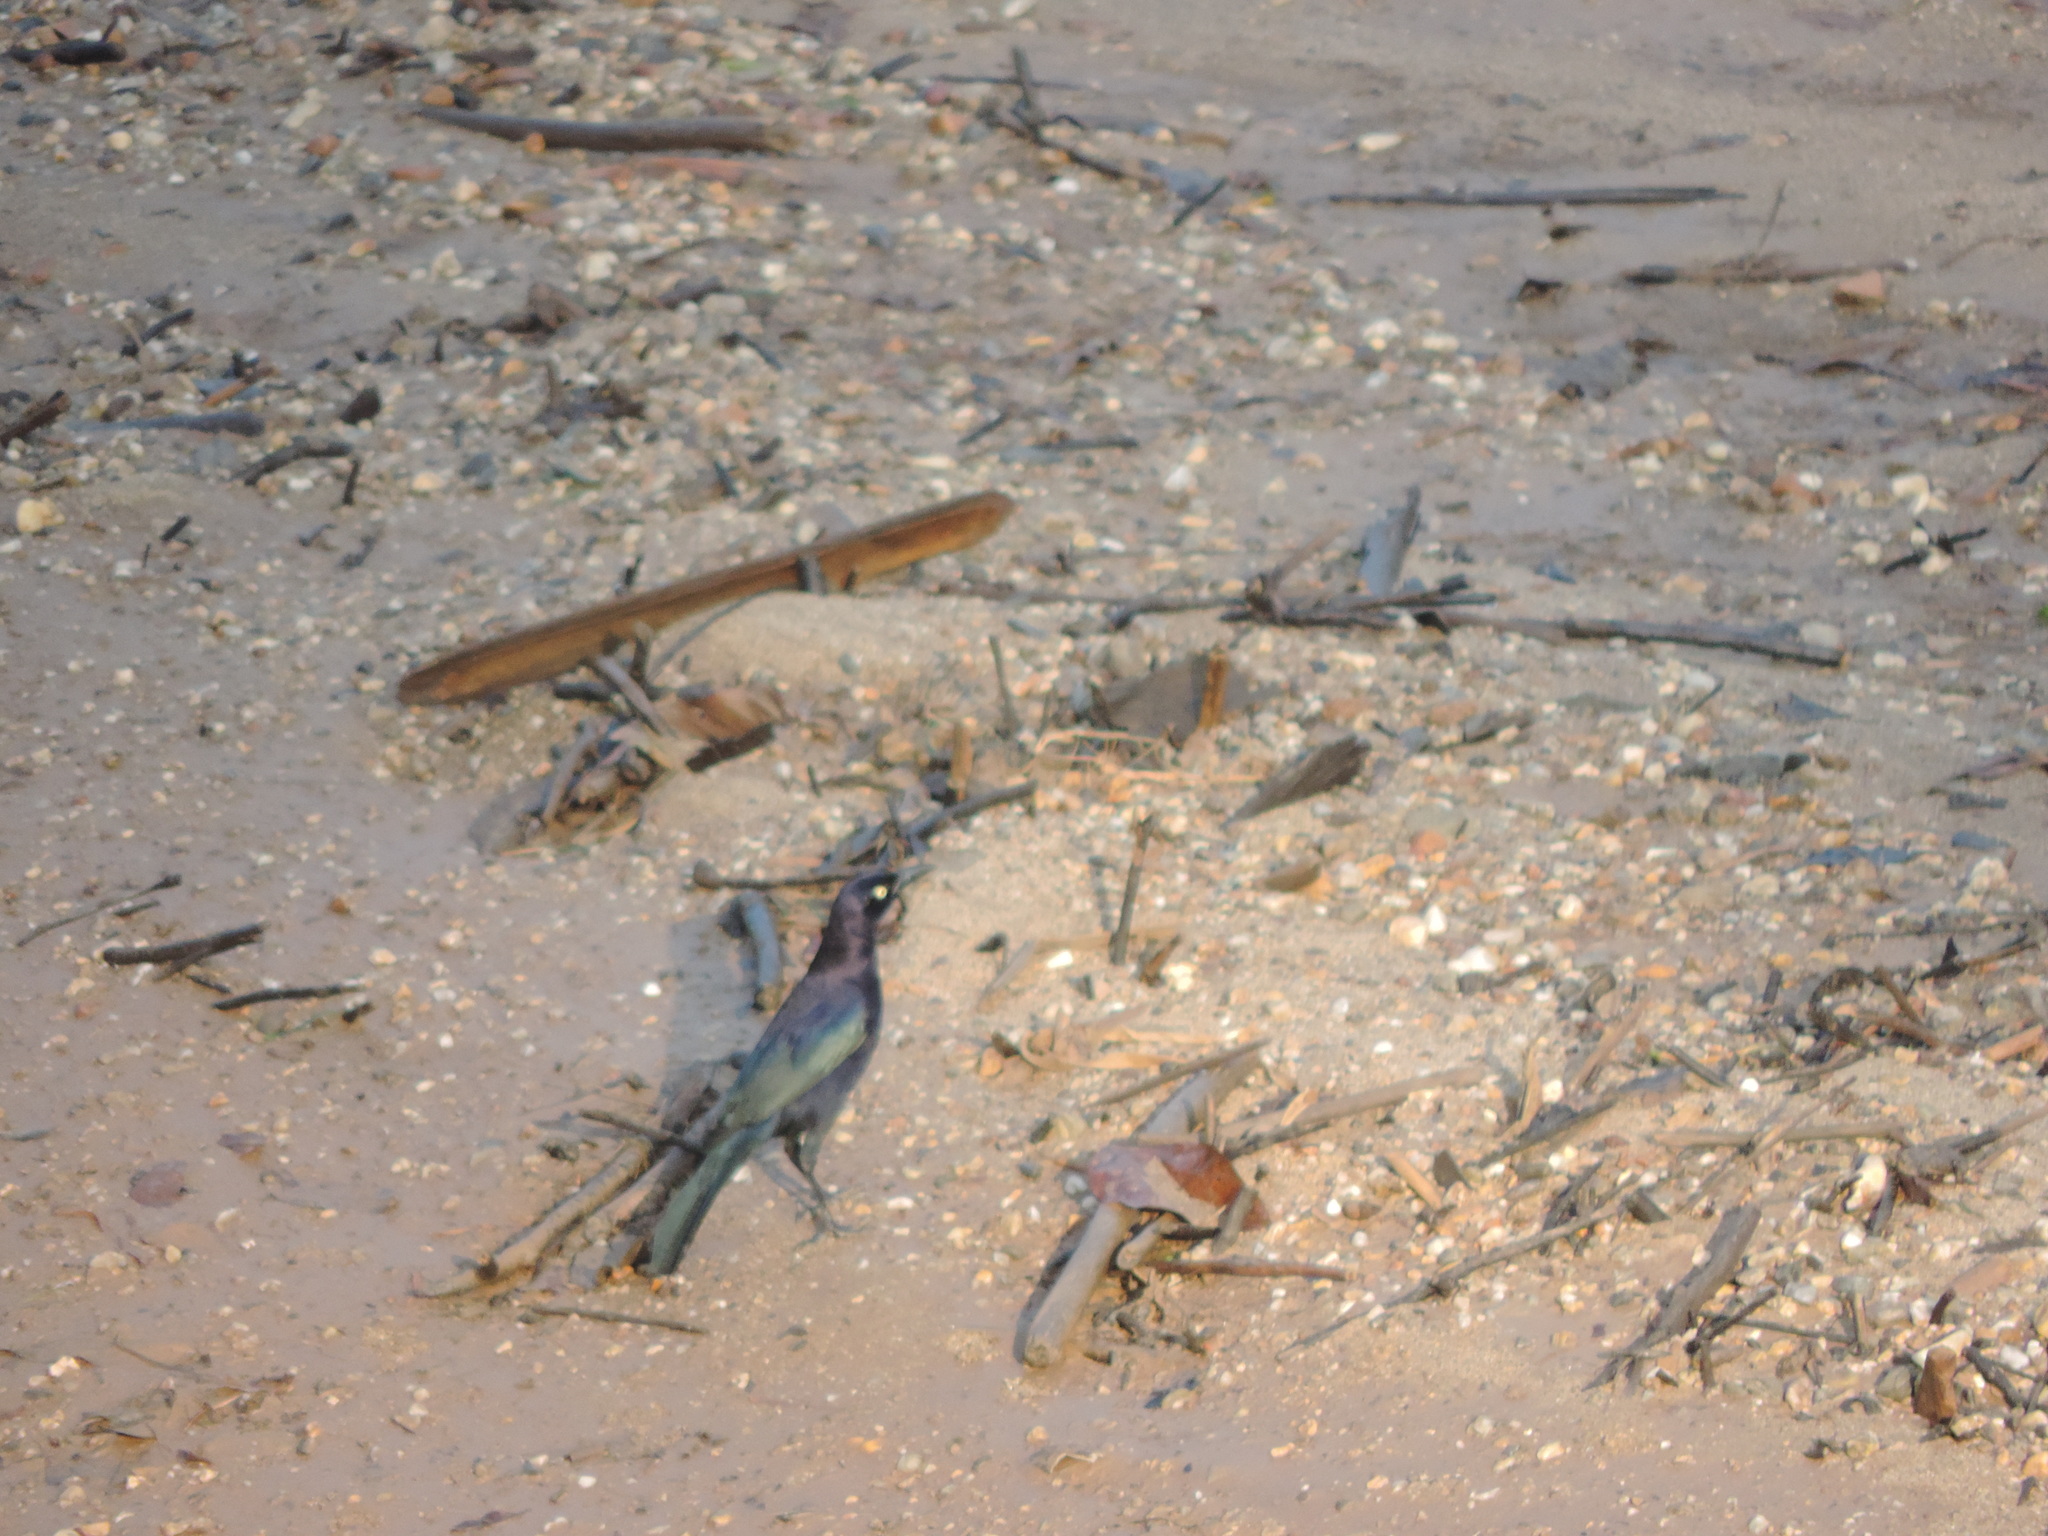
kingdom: Animalia
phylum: Chordata
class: Aves
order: Passeriformes
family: Icteridae
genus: Quiscalus
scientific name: Quiscalus lugubris
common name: Carib grackle
